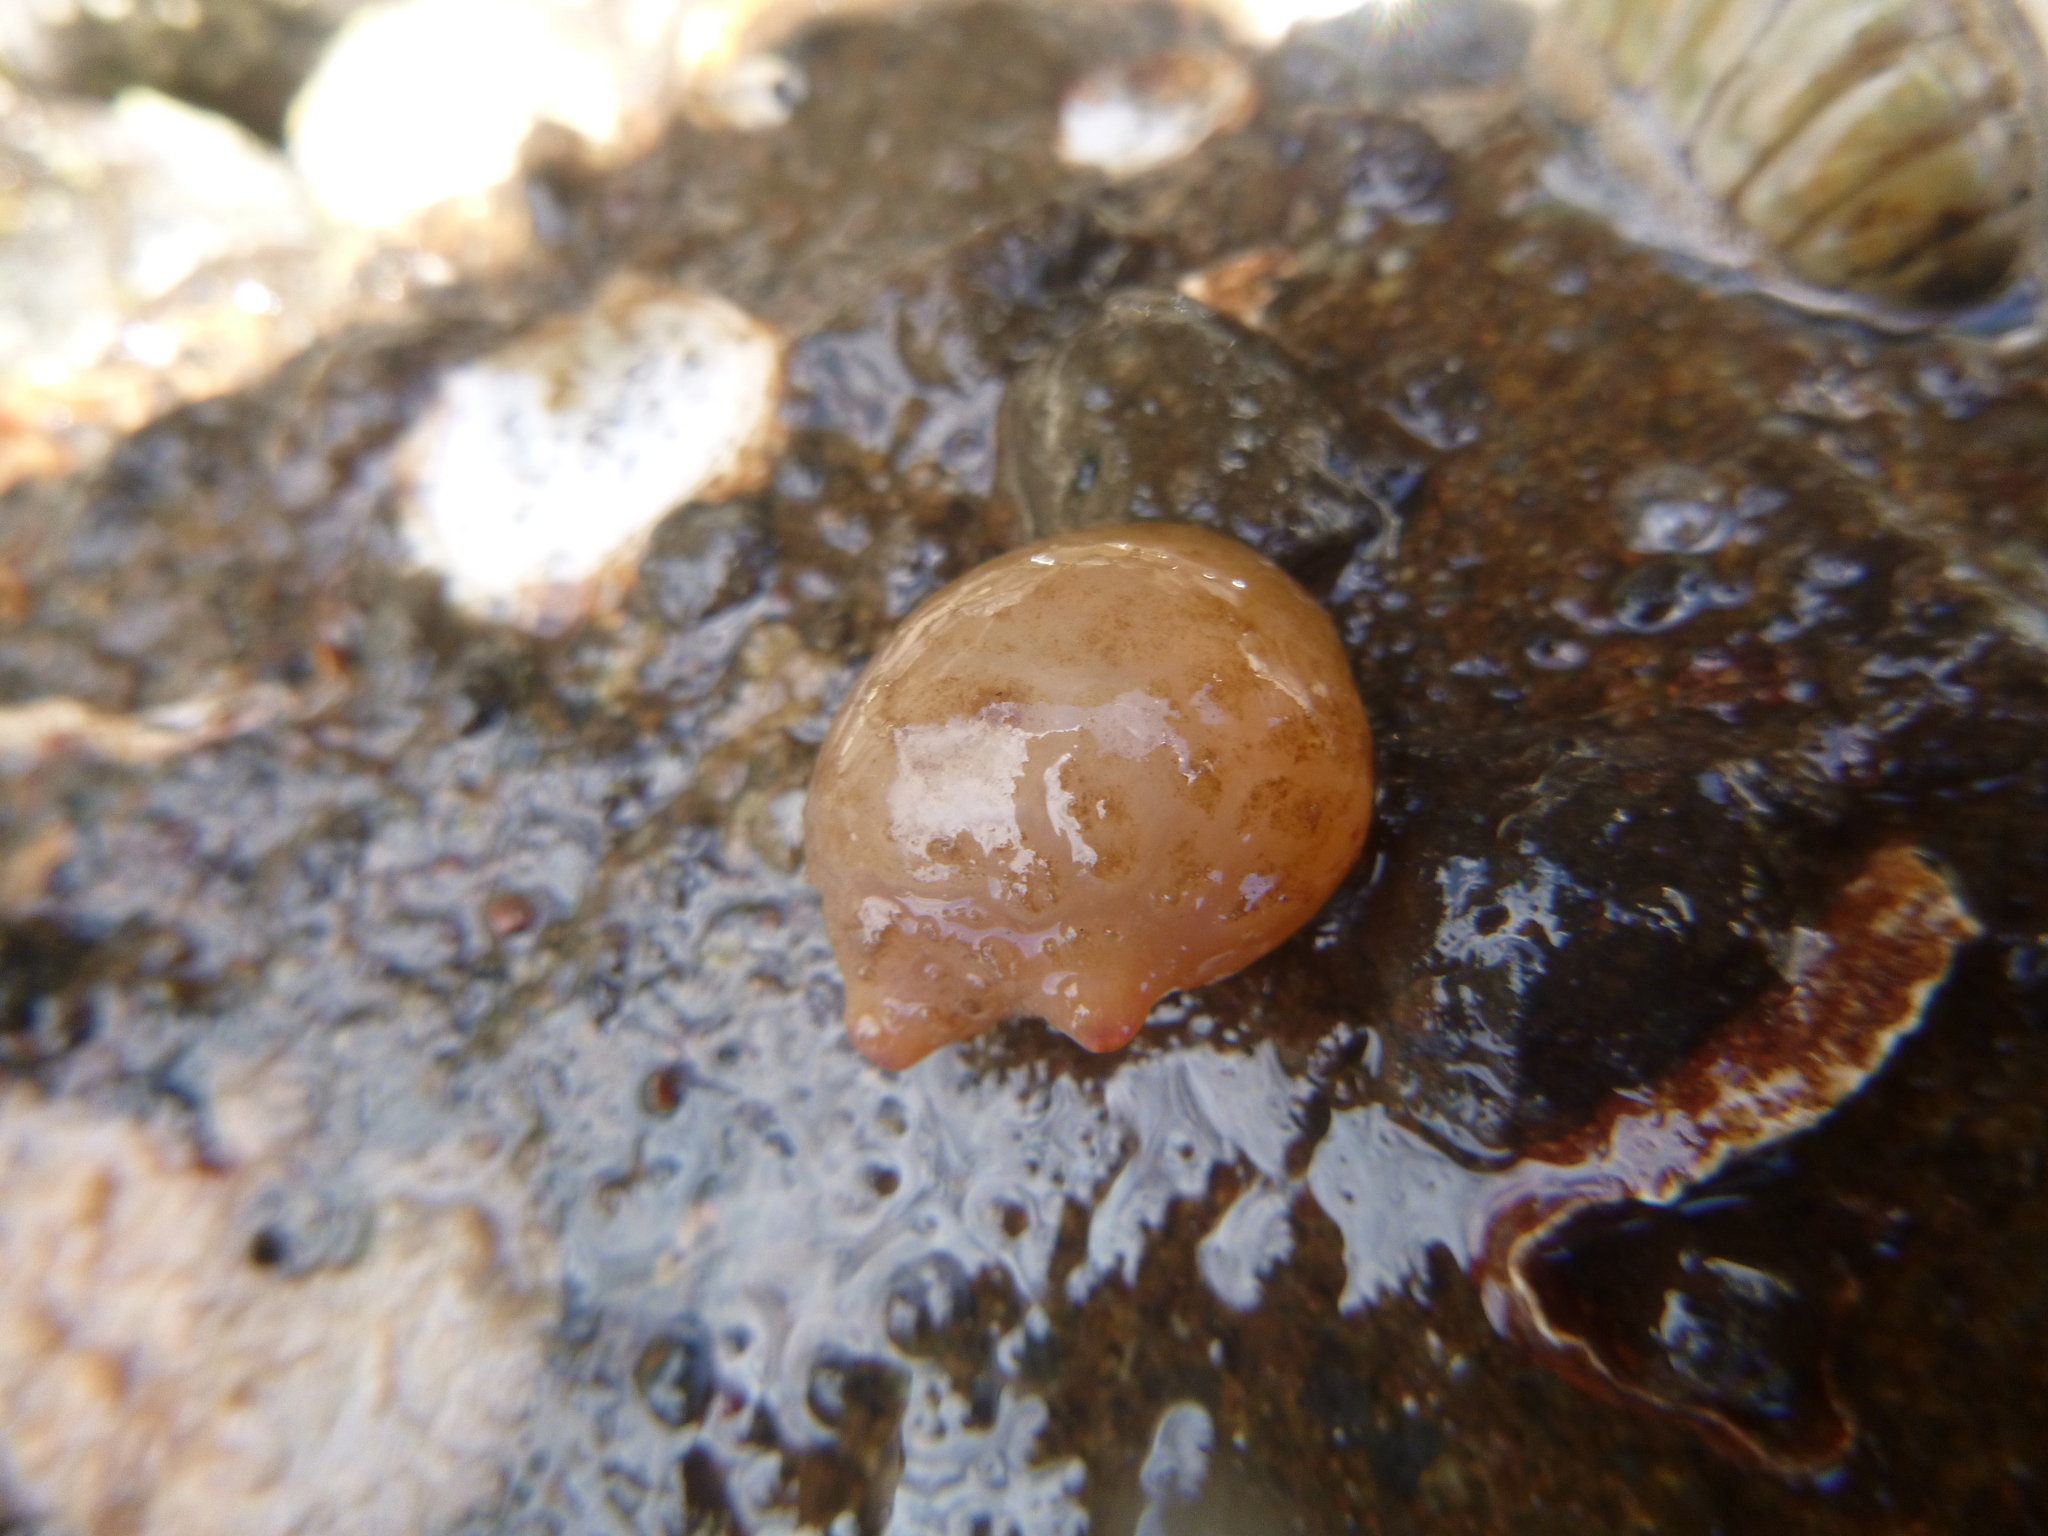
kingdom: Animalia
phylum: Chordata
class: Ascidiacea
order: Stolidobranchia
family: Styelidae
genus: Asterocarpa
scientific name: Asterocarpa humilis
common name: Compass sea squirt
